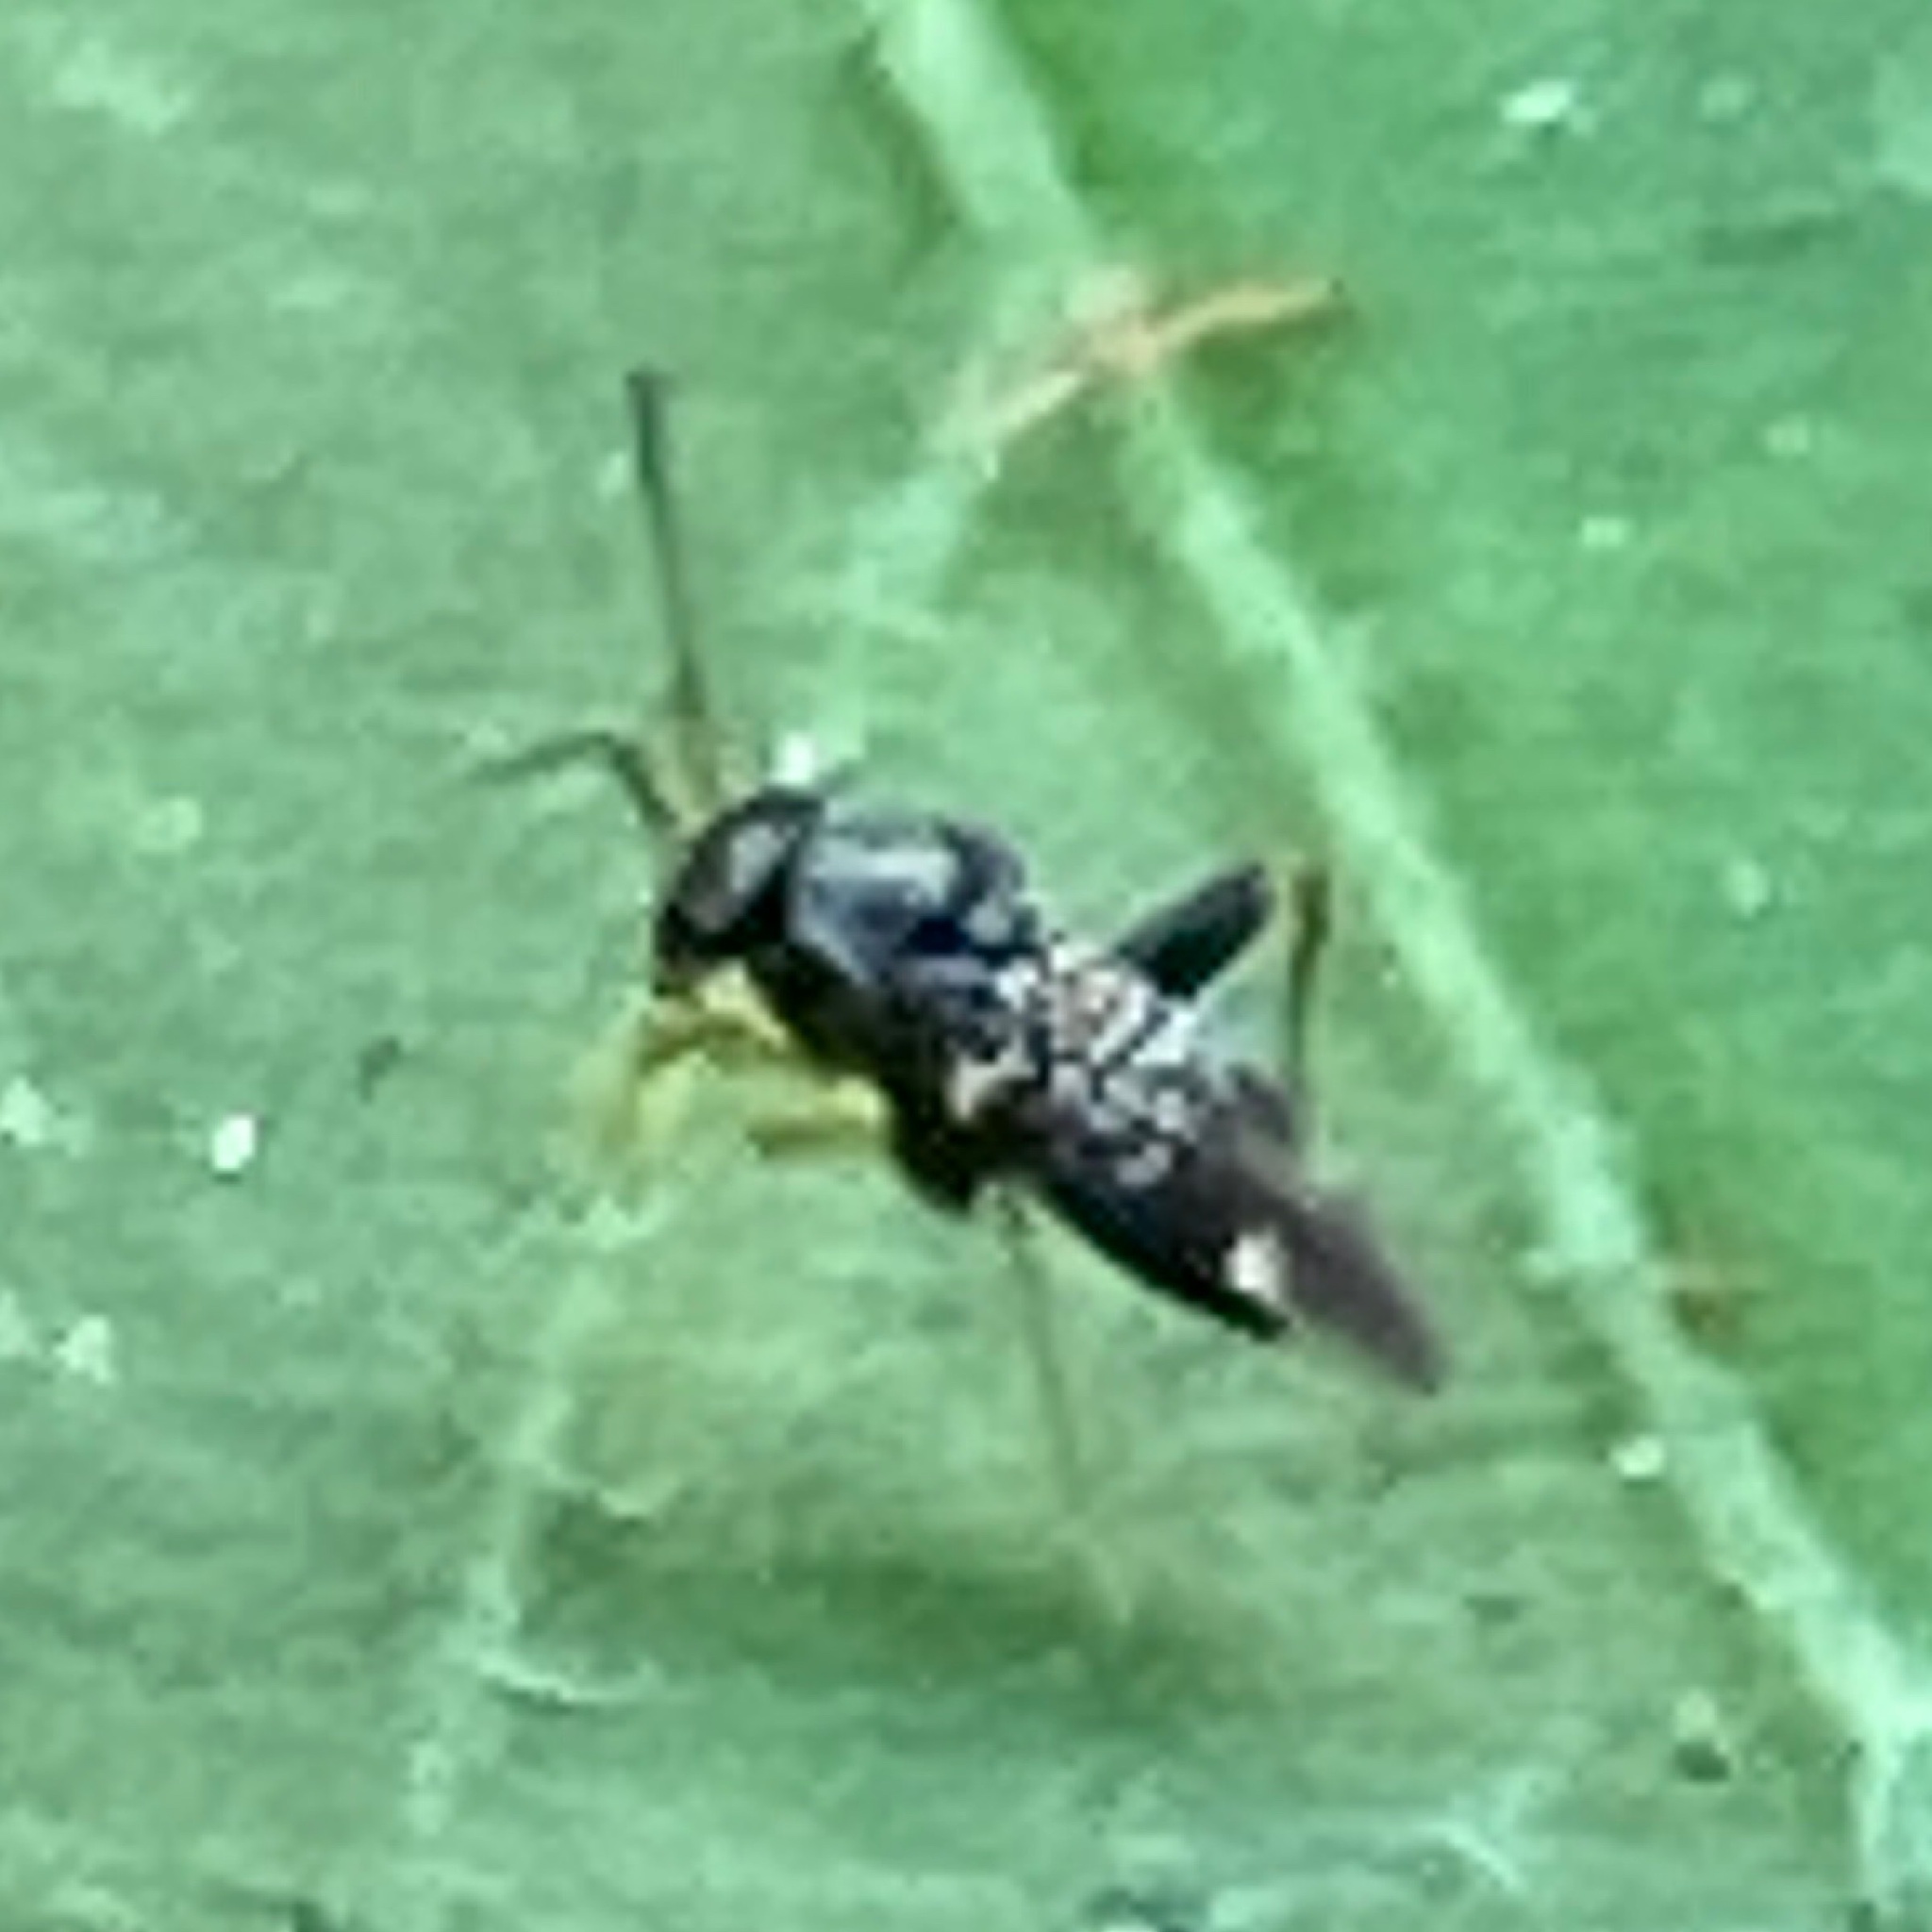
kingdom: Animalia
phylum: Arthropoda
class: Insecta
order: Hemiptera
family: Miridae
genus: Microtechnites
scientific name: Microtechnites bractatus
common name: Garden fleahopper
